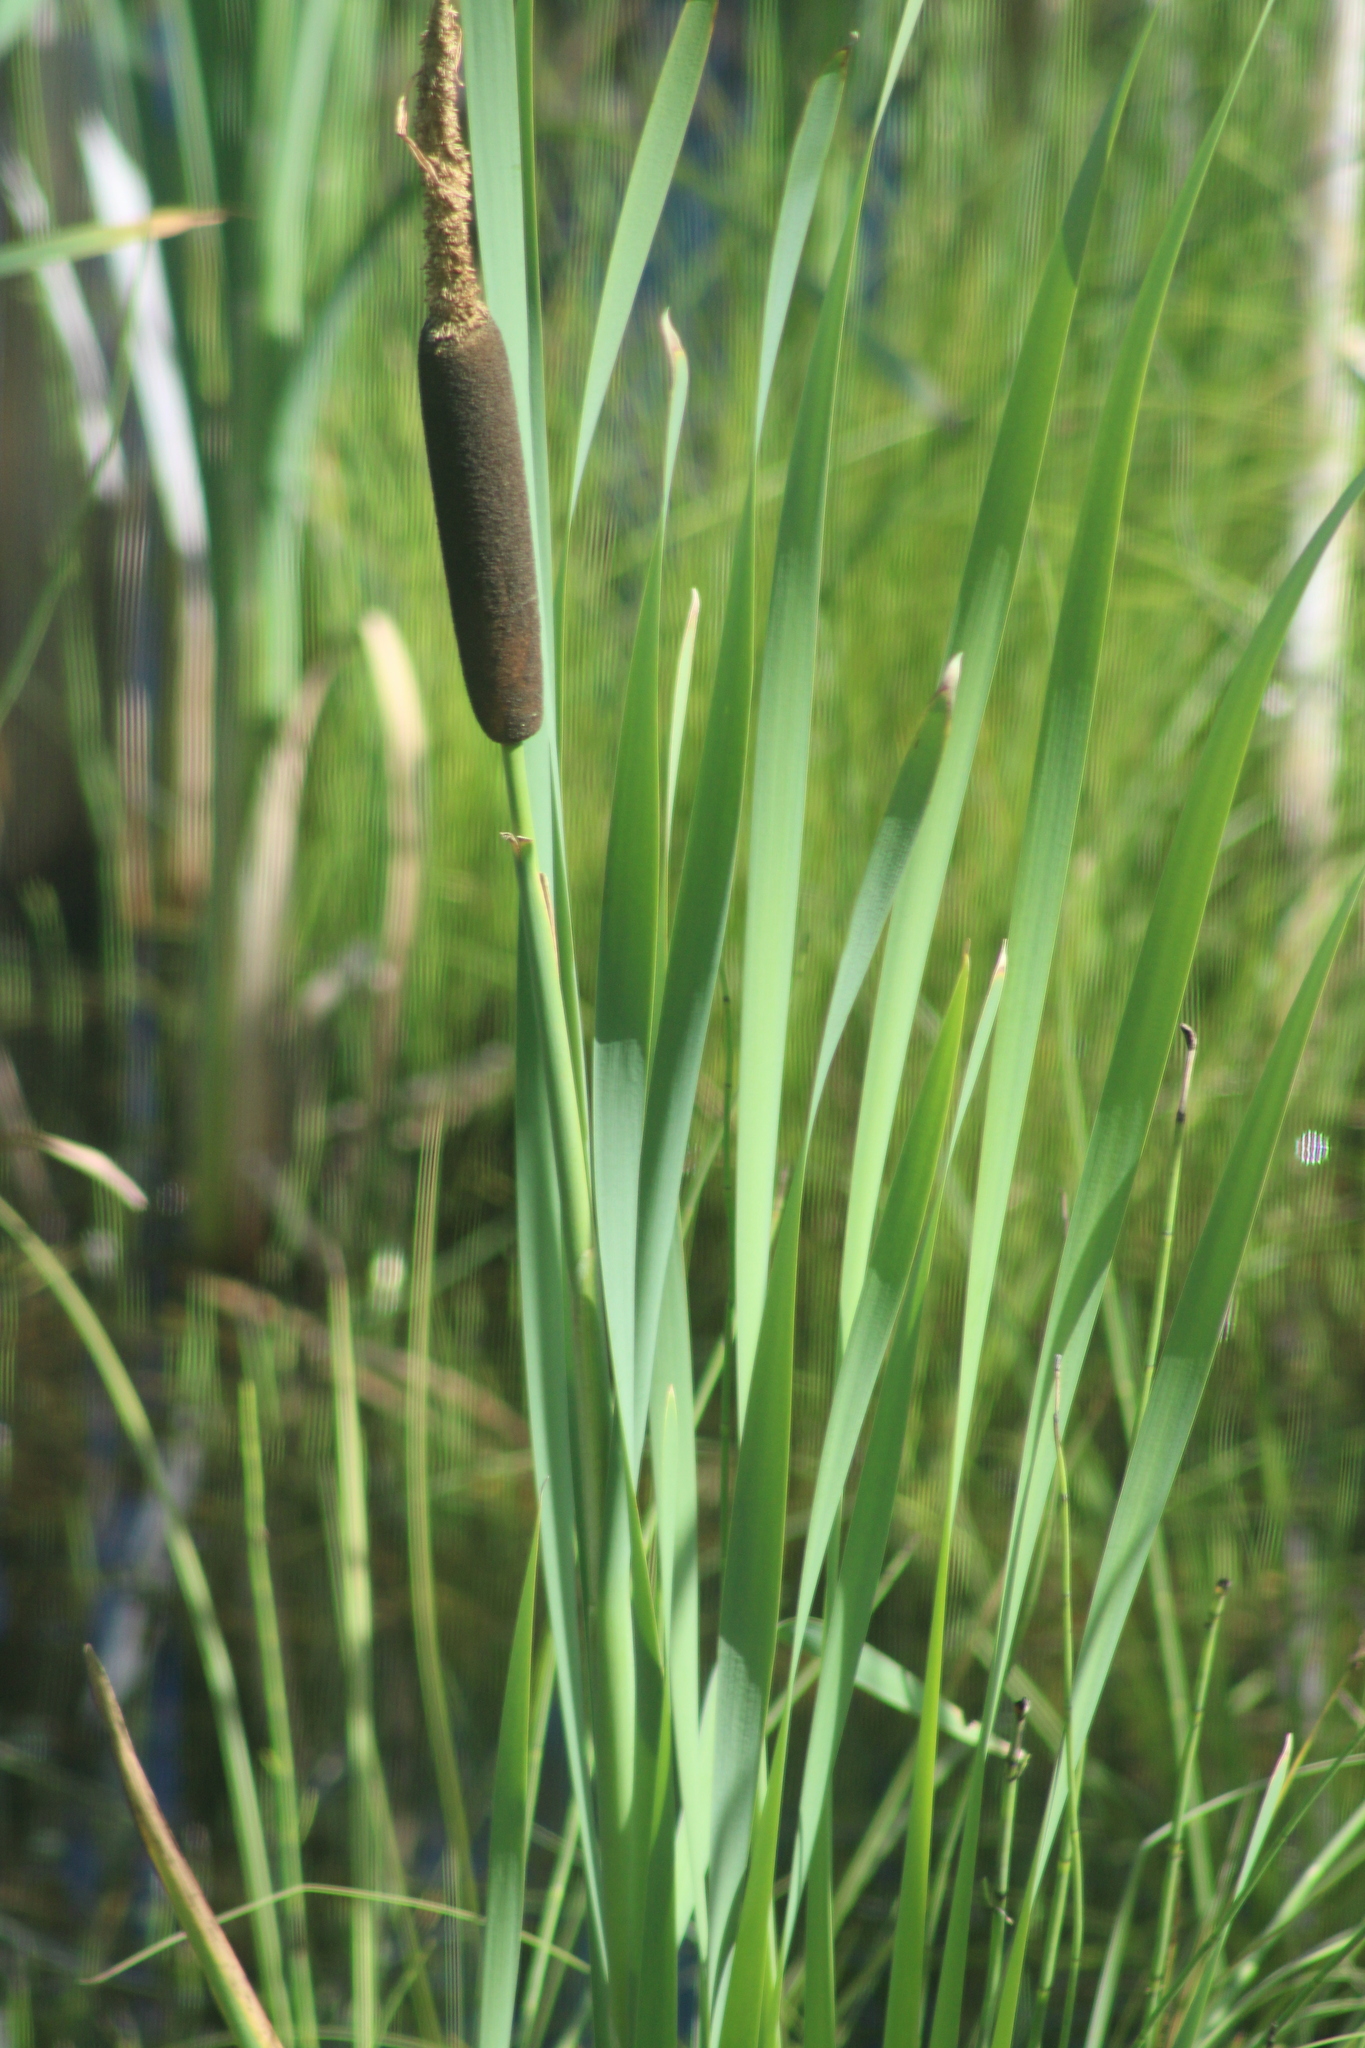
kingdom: Plantae
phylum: Tracheophyta
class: Liliopsida
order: Poales
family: Typhaceae
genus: Typha
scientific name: Typha latifolia
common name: Broadleaf cattail
